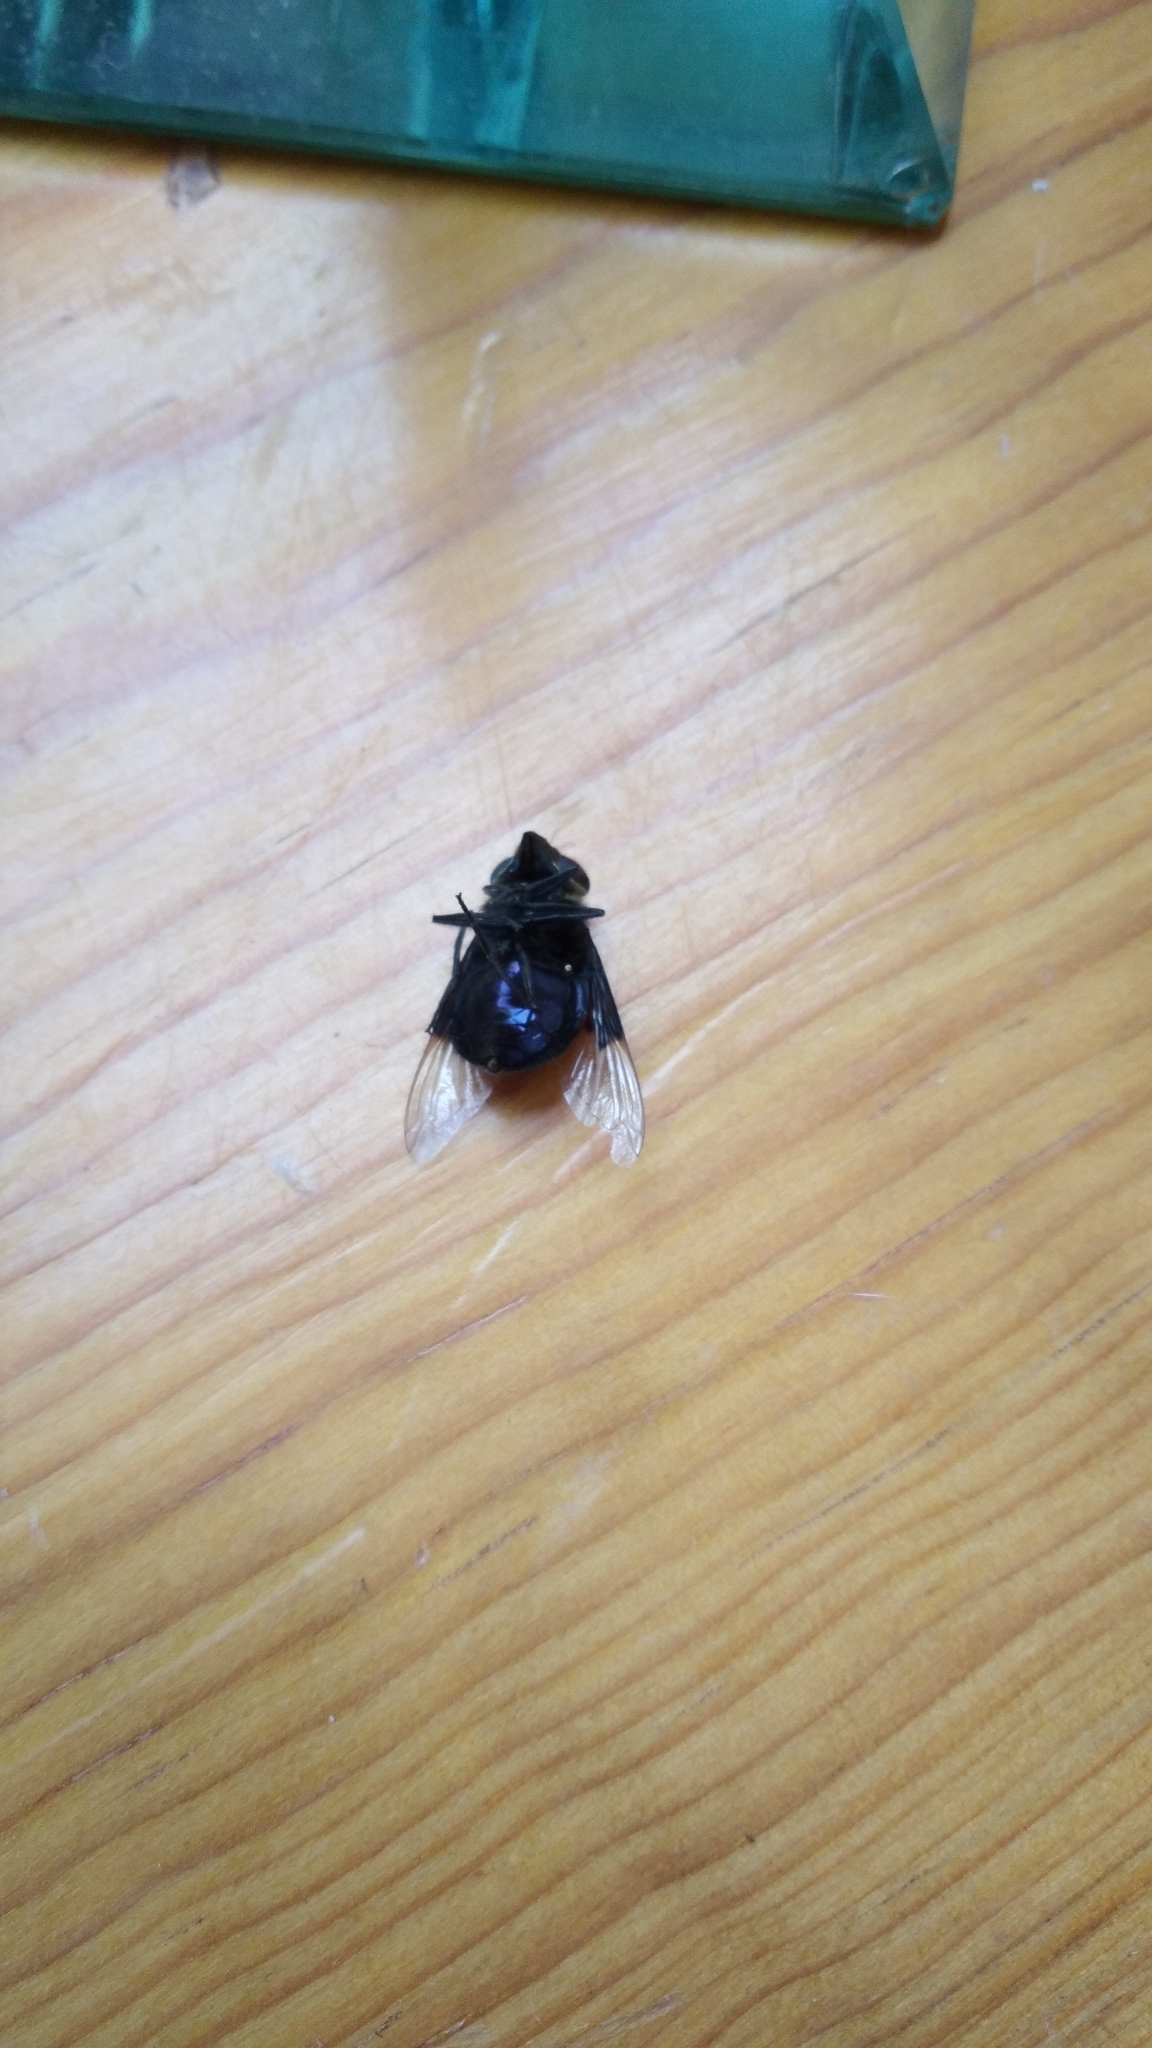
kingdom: Animalia
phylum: Arthropoda
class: Insecta
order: Diptera
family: Syrphidae
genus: Copestylum
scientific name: Copestylum mexicanum
